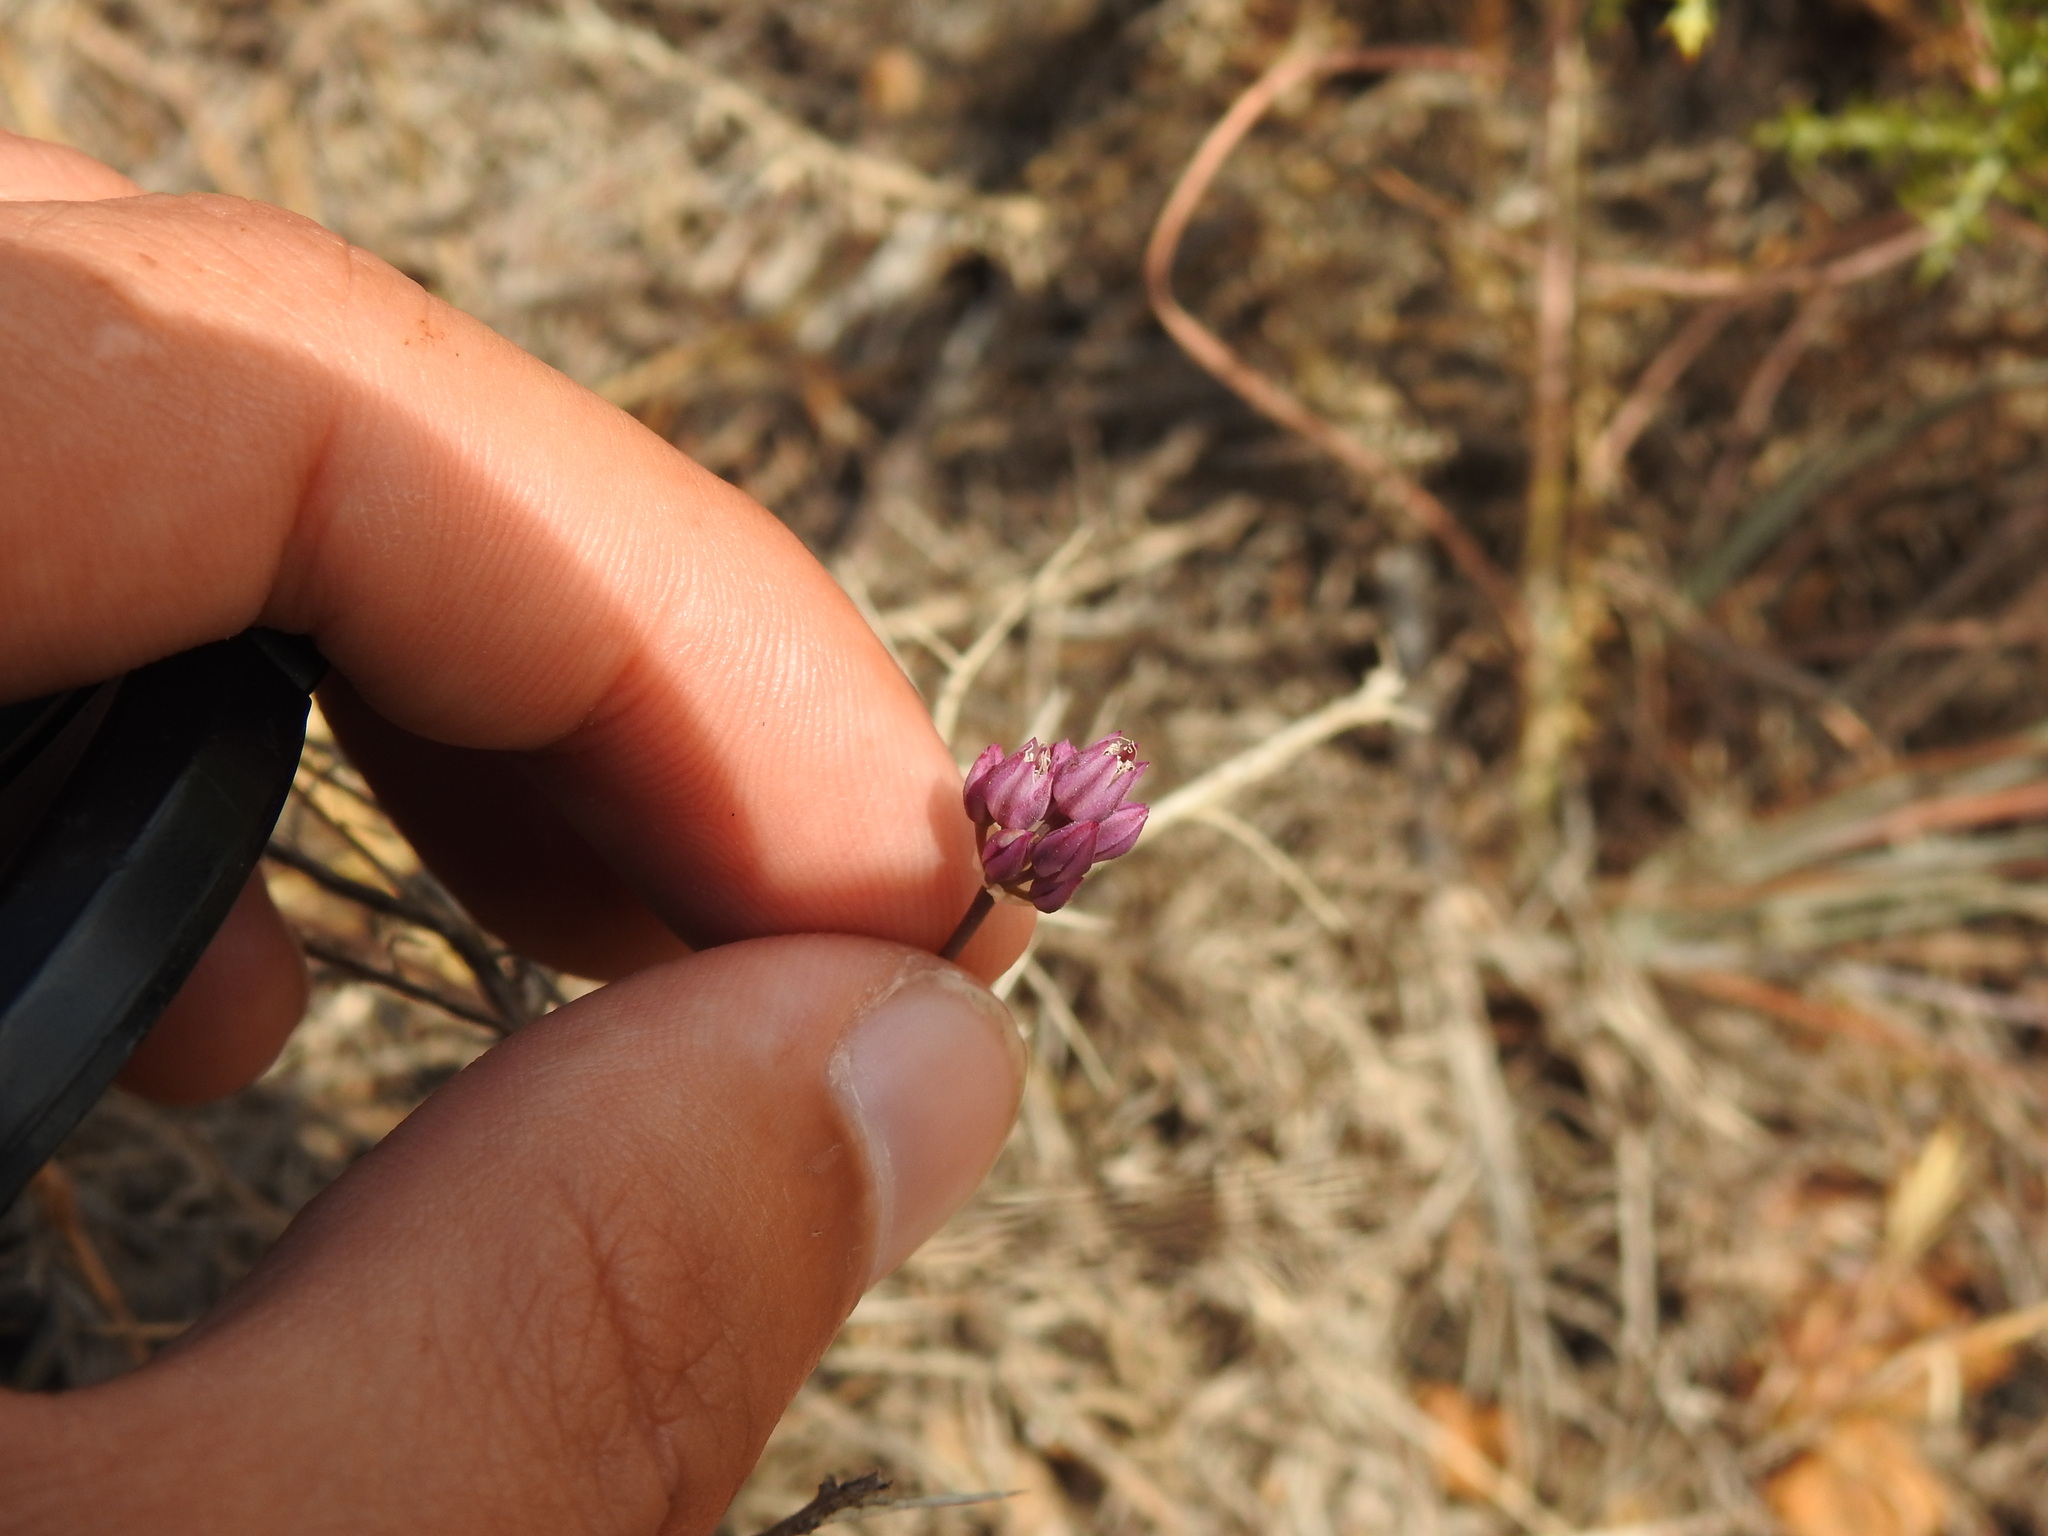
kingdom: Plantae
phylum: Tracheophyta
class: Liliopsida
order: Asparagales
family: Amaryllidaceae
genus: Allium
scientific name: Allium pruinatum
